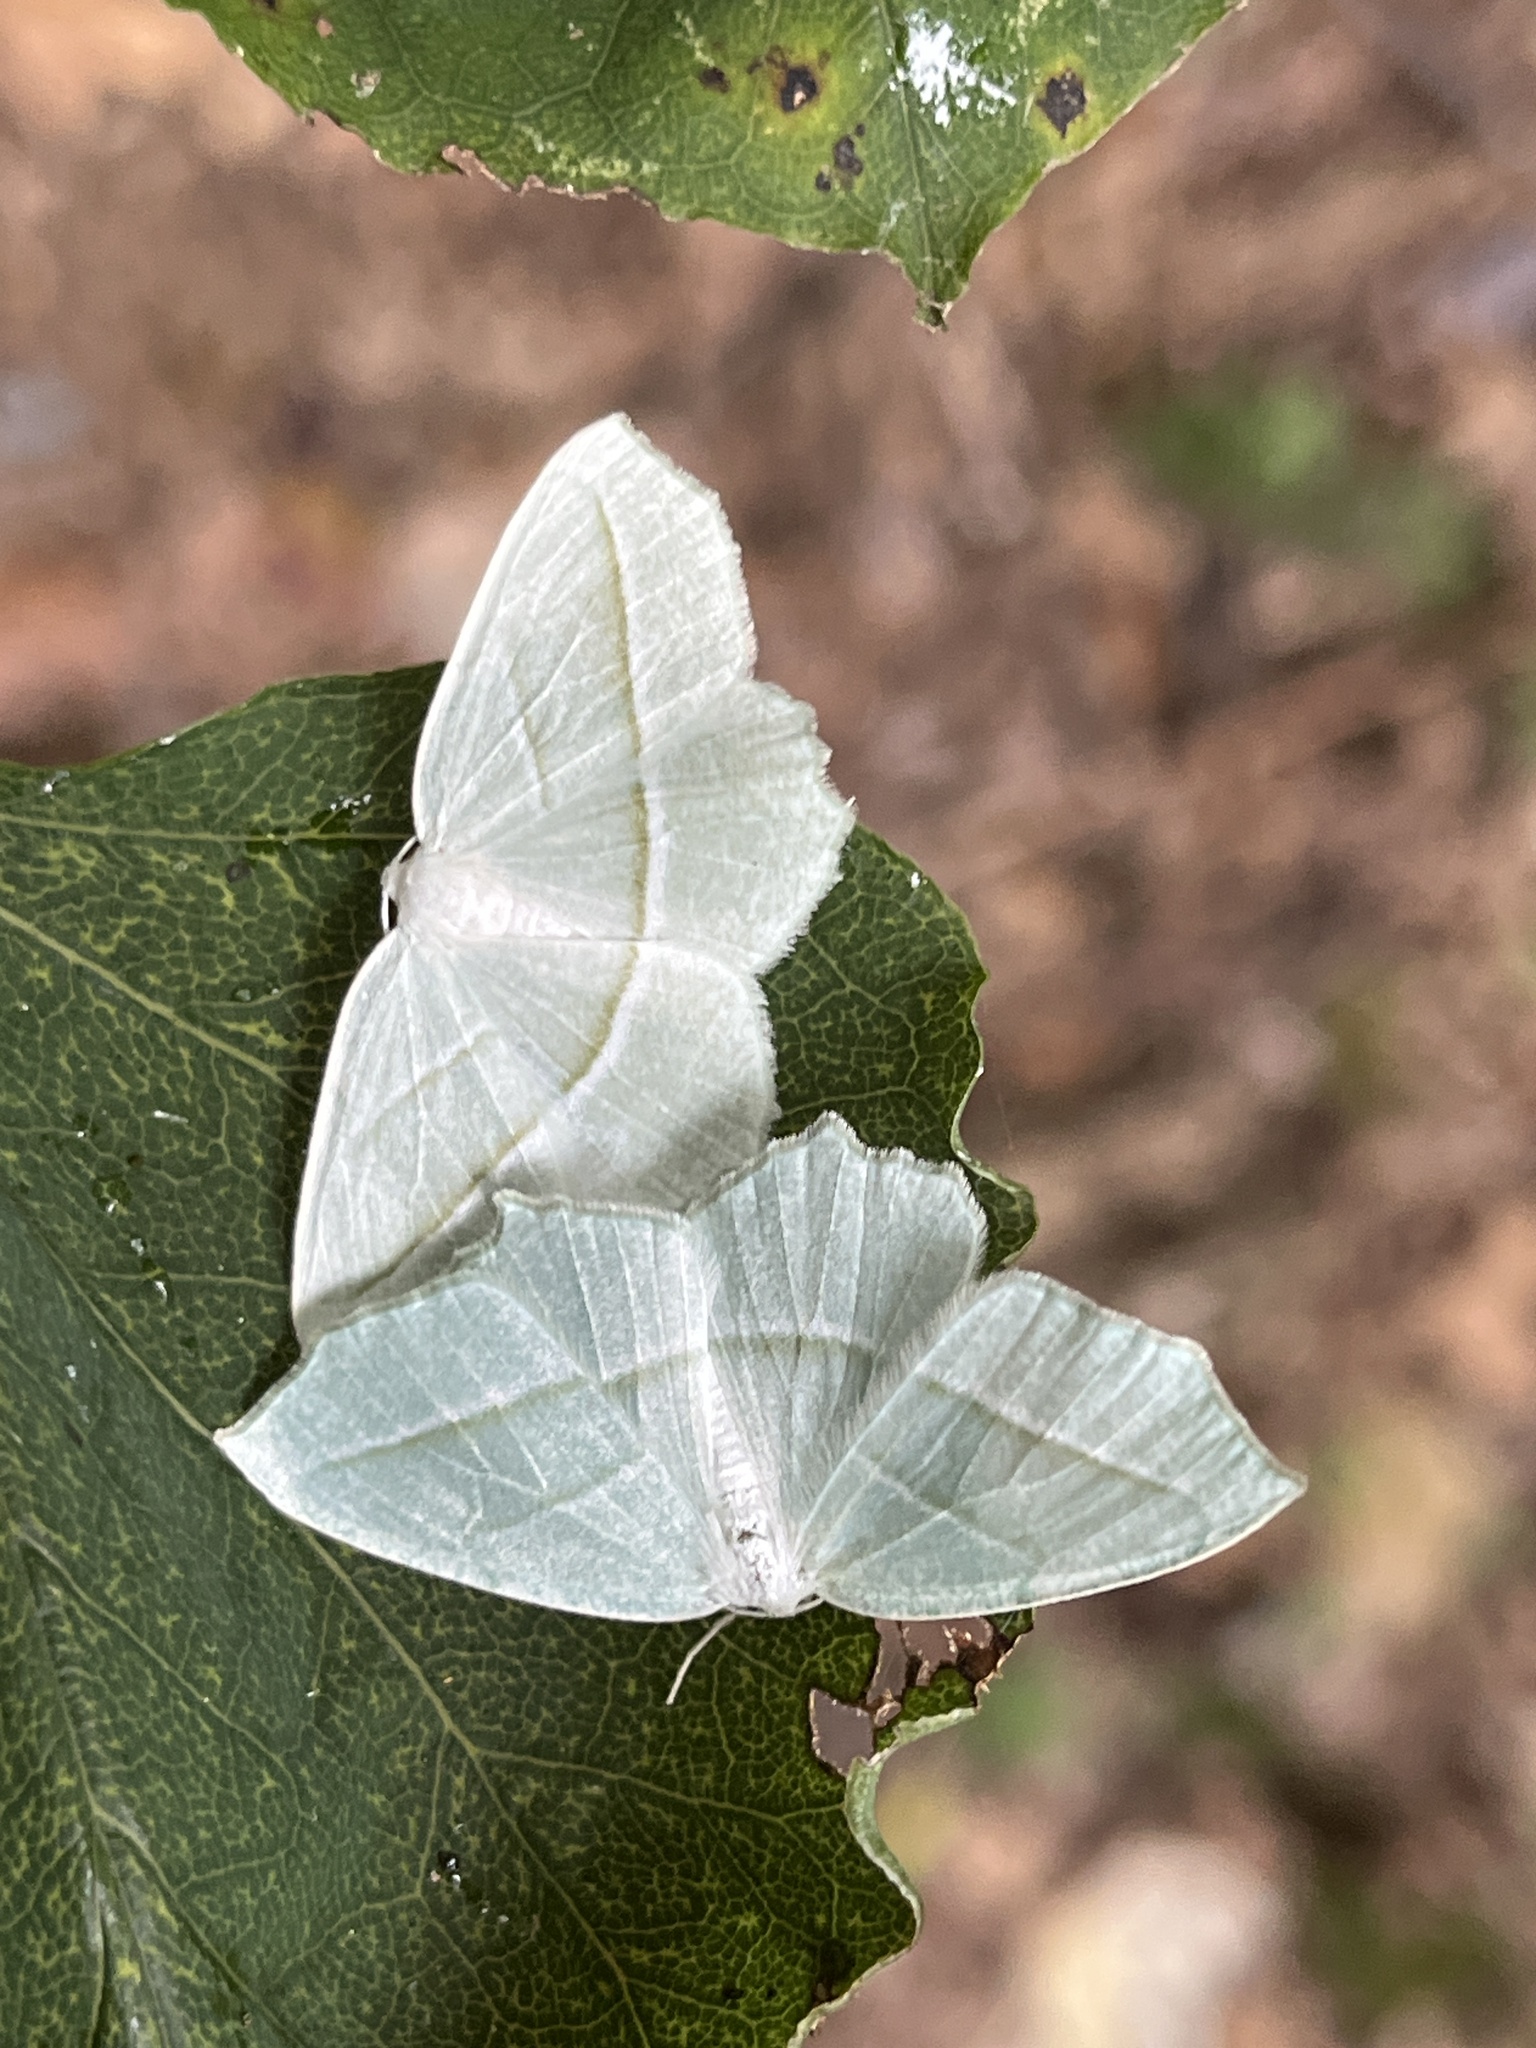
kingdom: Animalia
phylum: Arthropoda
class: Insecta
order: Lepidoptera
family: Geometridae
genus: Campaea
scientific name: Campaea perlata
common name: Fringed looper
